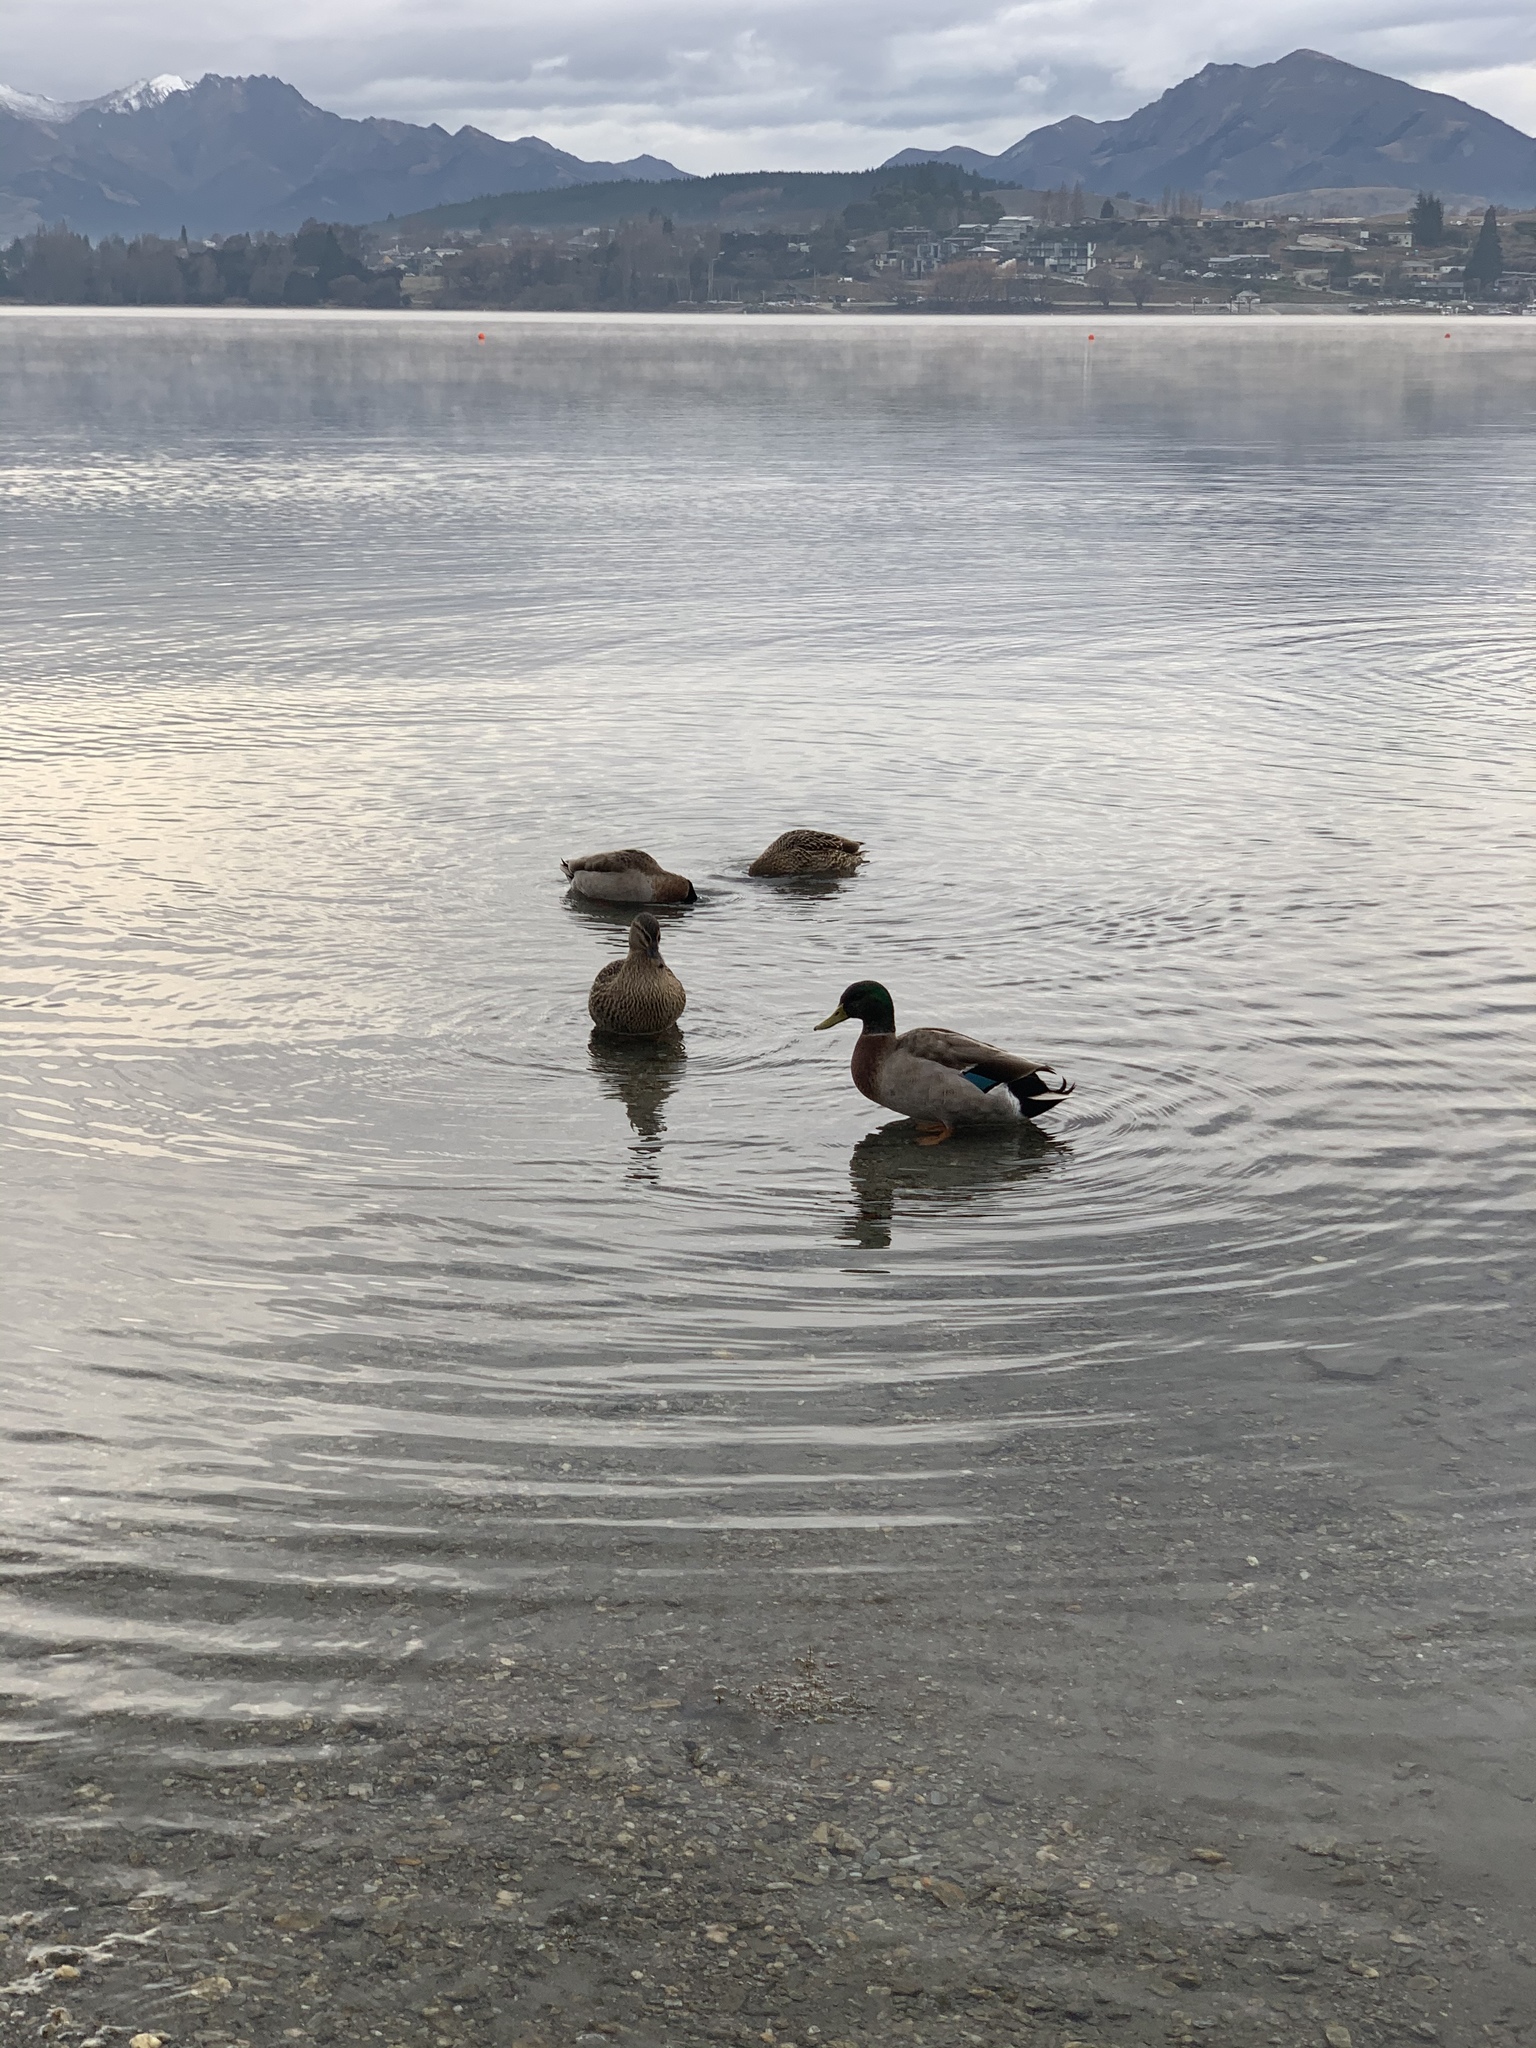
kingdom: Animalia
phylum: Chordata
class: Aves
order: Anseriformes
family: Anatidae
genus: Anas
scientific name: Anas
